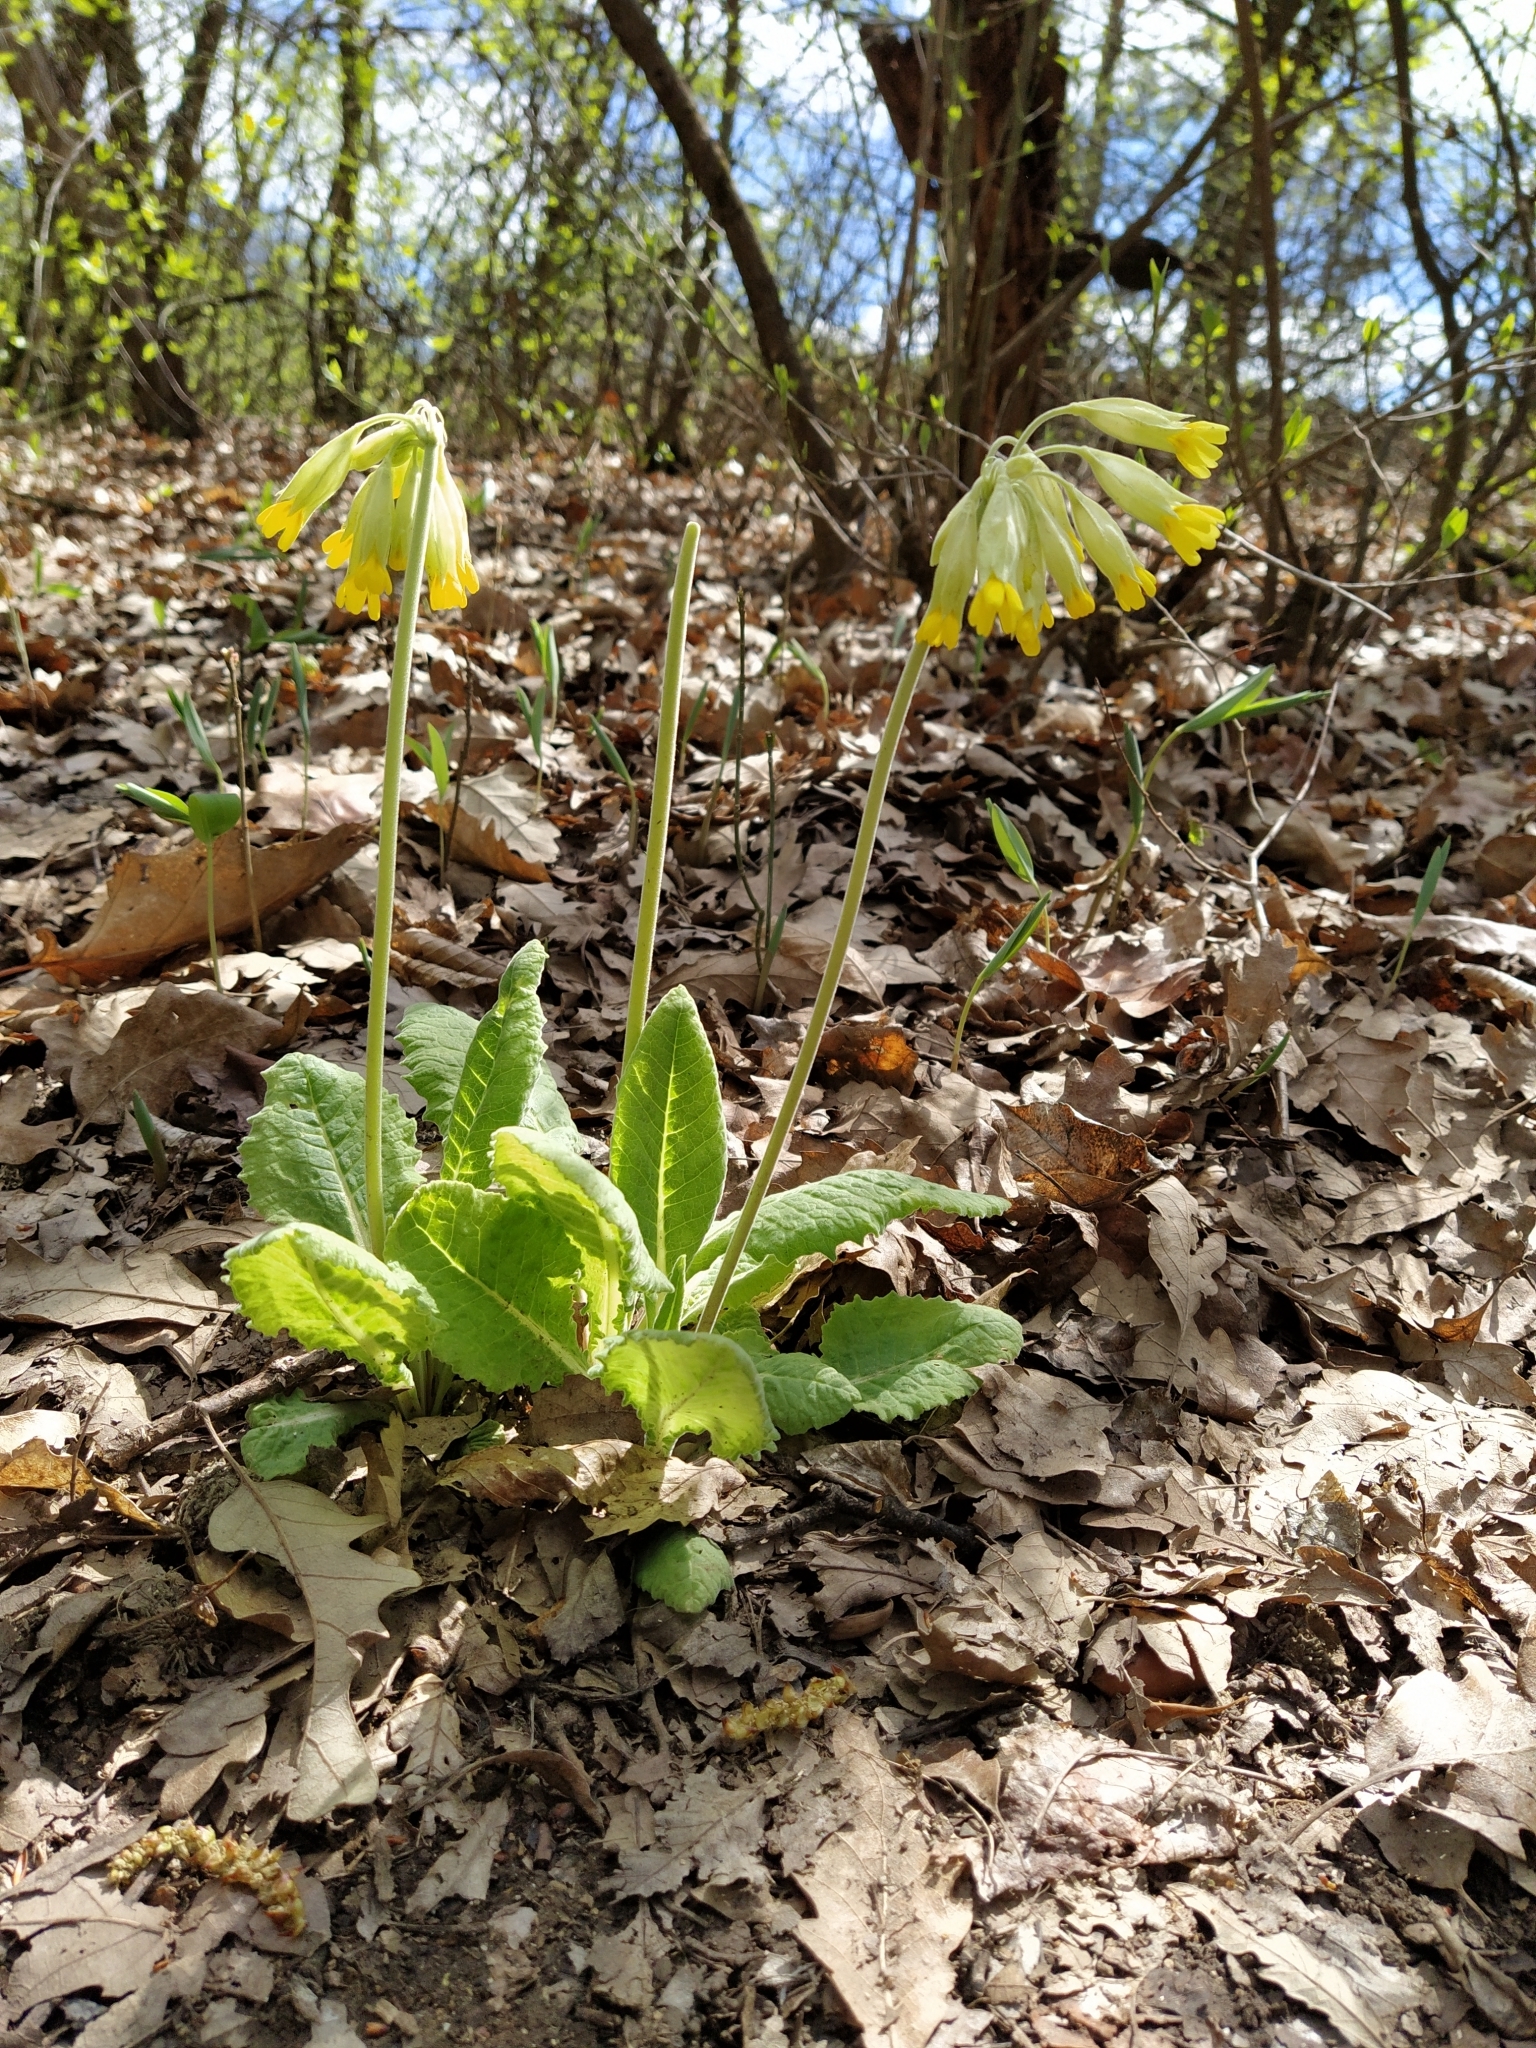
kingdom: Plantae
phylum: Tracheophyta
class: Magnoliopsida
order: Ericales
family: Primulaceae
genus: Primula
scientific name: Primula veris
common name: Cowslip
